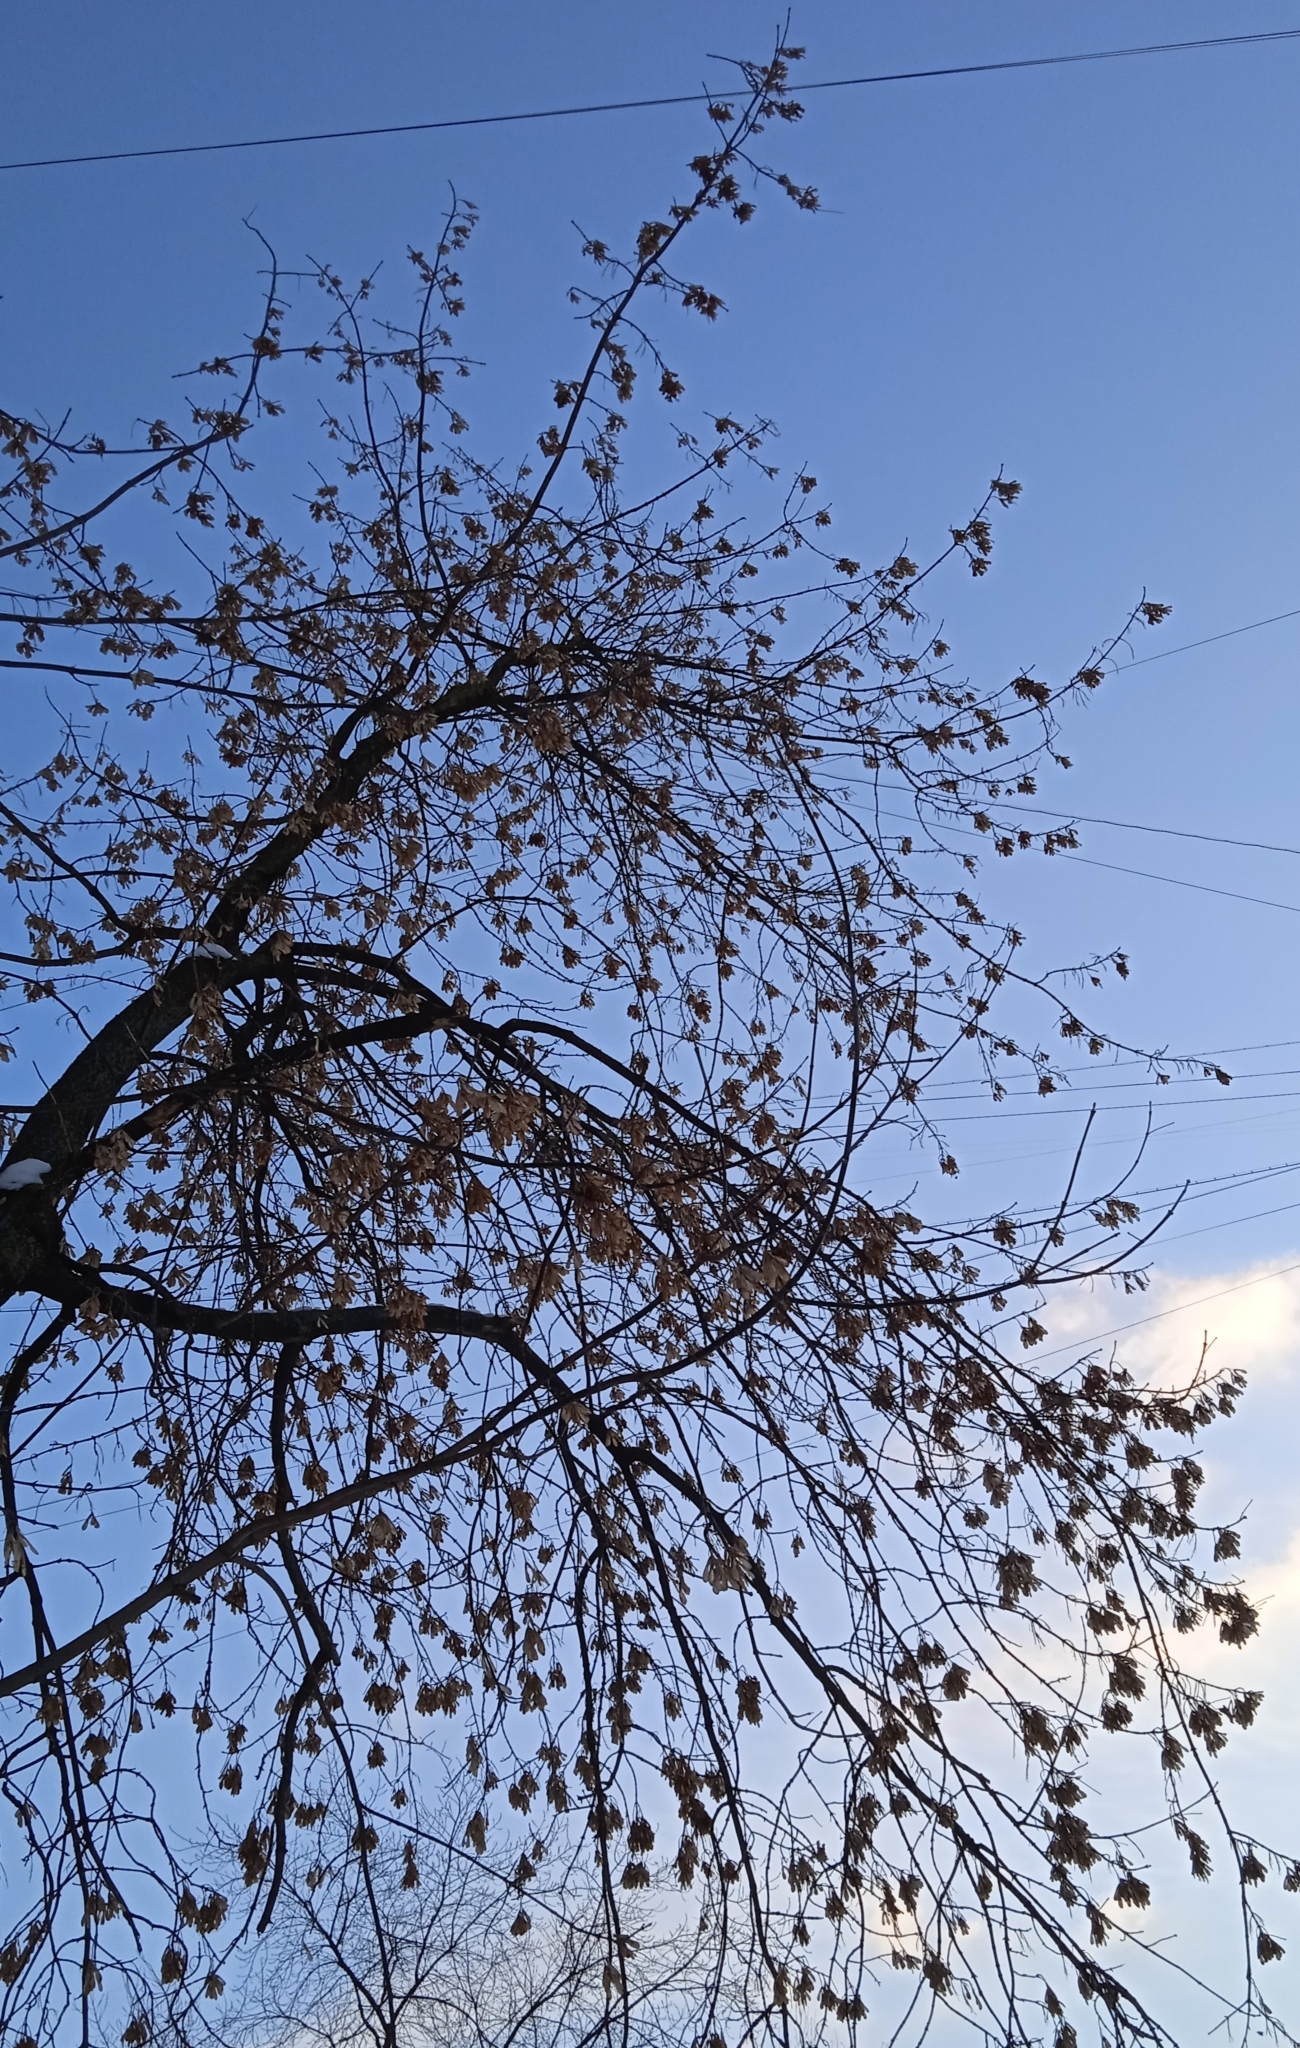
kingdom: Plantae
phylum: Tracheophyta
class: Magnoliopsida
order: Sapindales
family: Sapindaceae
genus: Acer
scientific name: Acer negundo
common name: Ashleaf maple
